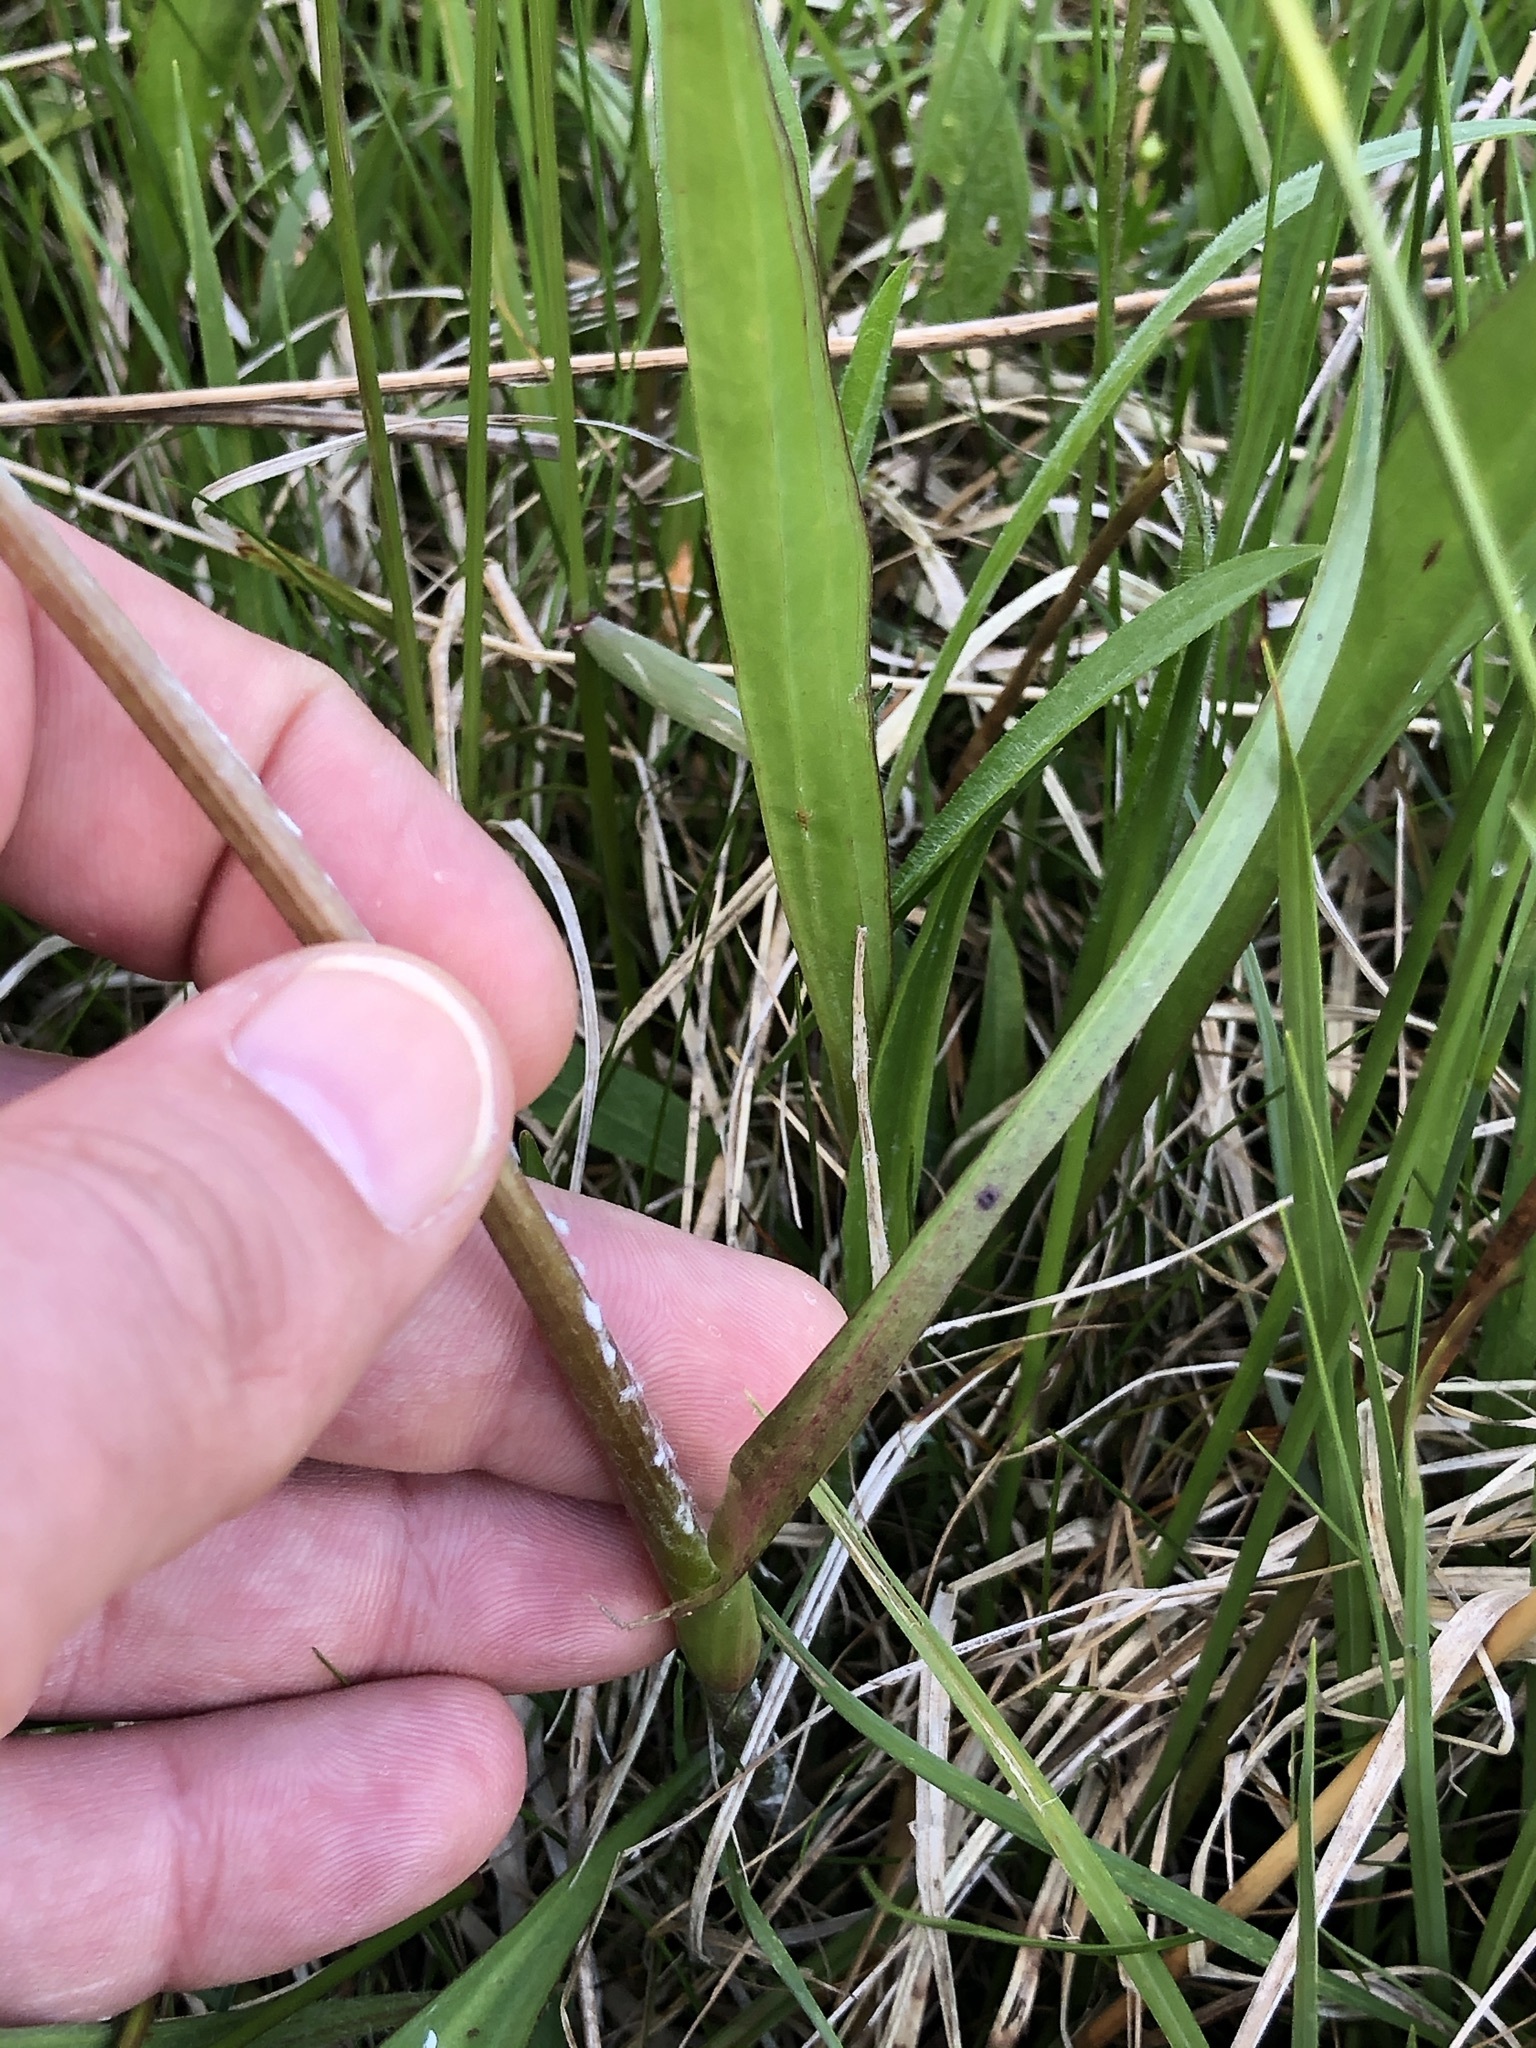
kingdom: Plantae
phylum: Tracheophyta
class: Magnoliopsida
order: Asterales
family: Asteraceae
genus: Scorzonera
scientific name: Scorzonera humilis
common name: Viper's-grass
